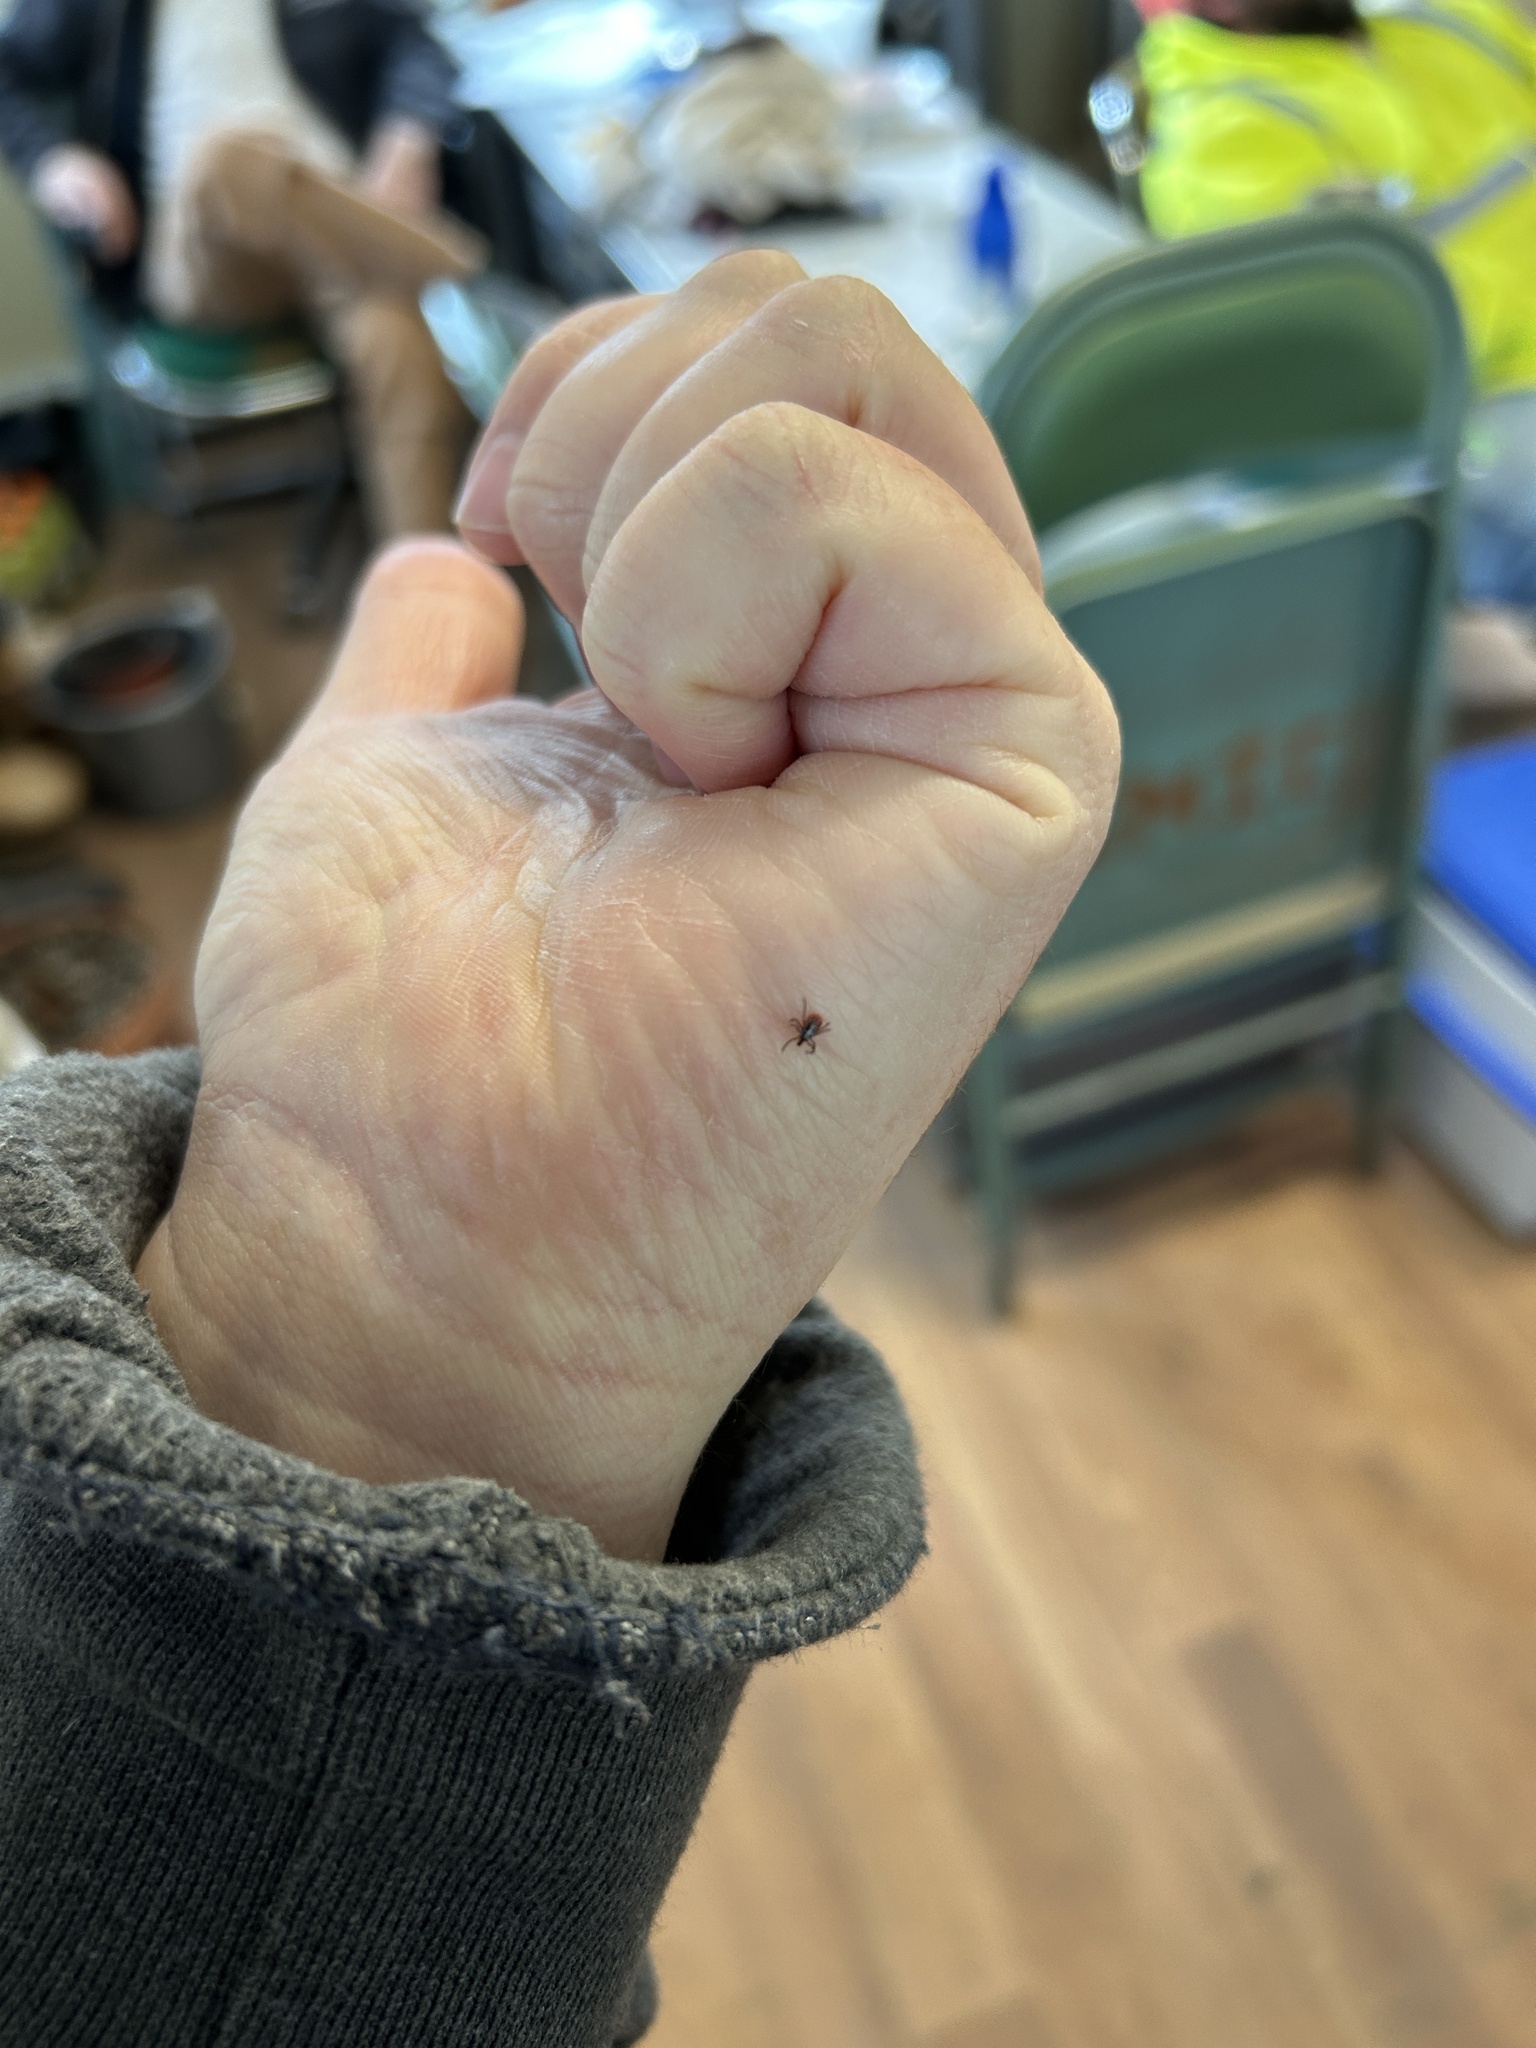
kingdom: Animalia
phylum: Arthropoda
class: Arachnida
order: Ixodida
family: Ixodidae
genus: Ixodes
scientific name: Ixodes scapularis
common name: Black legged tick
